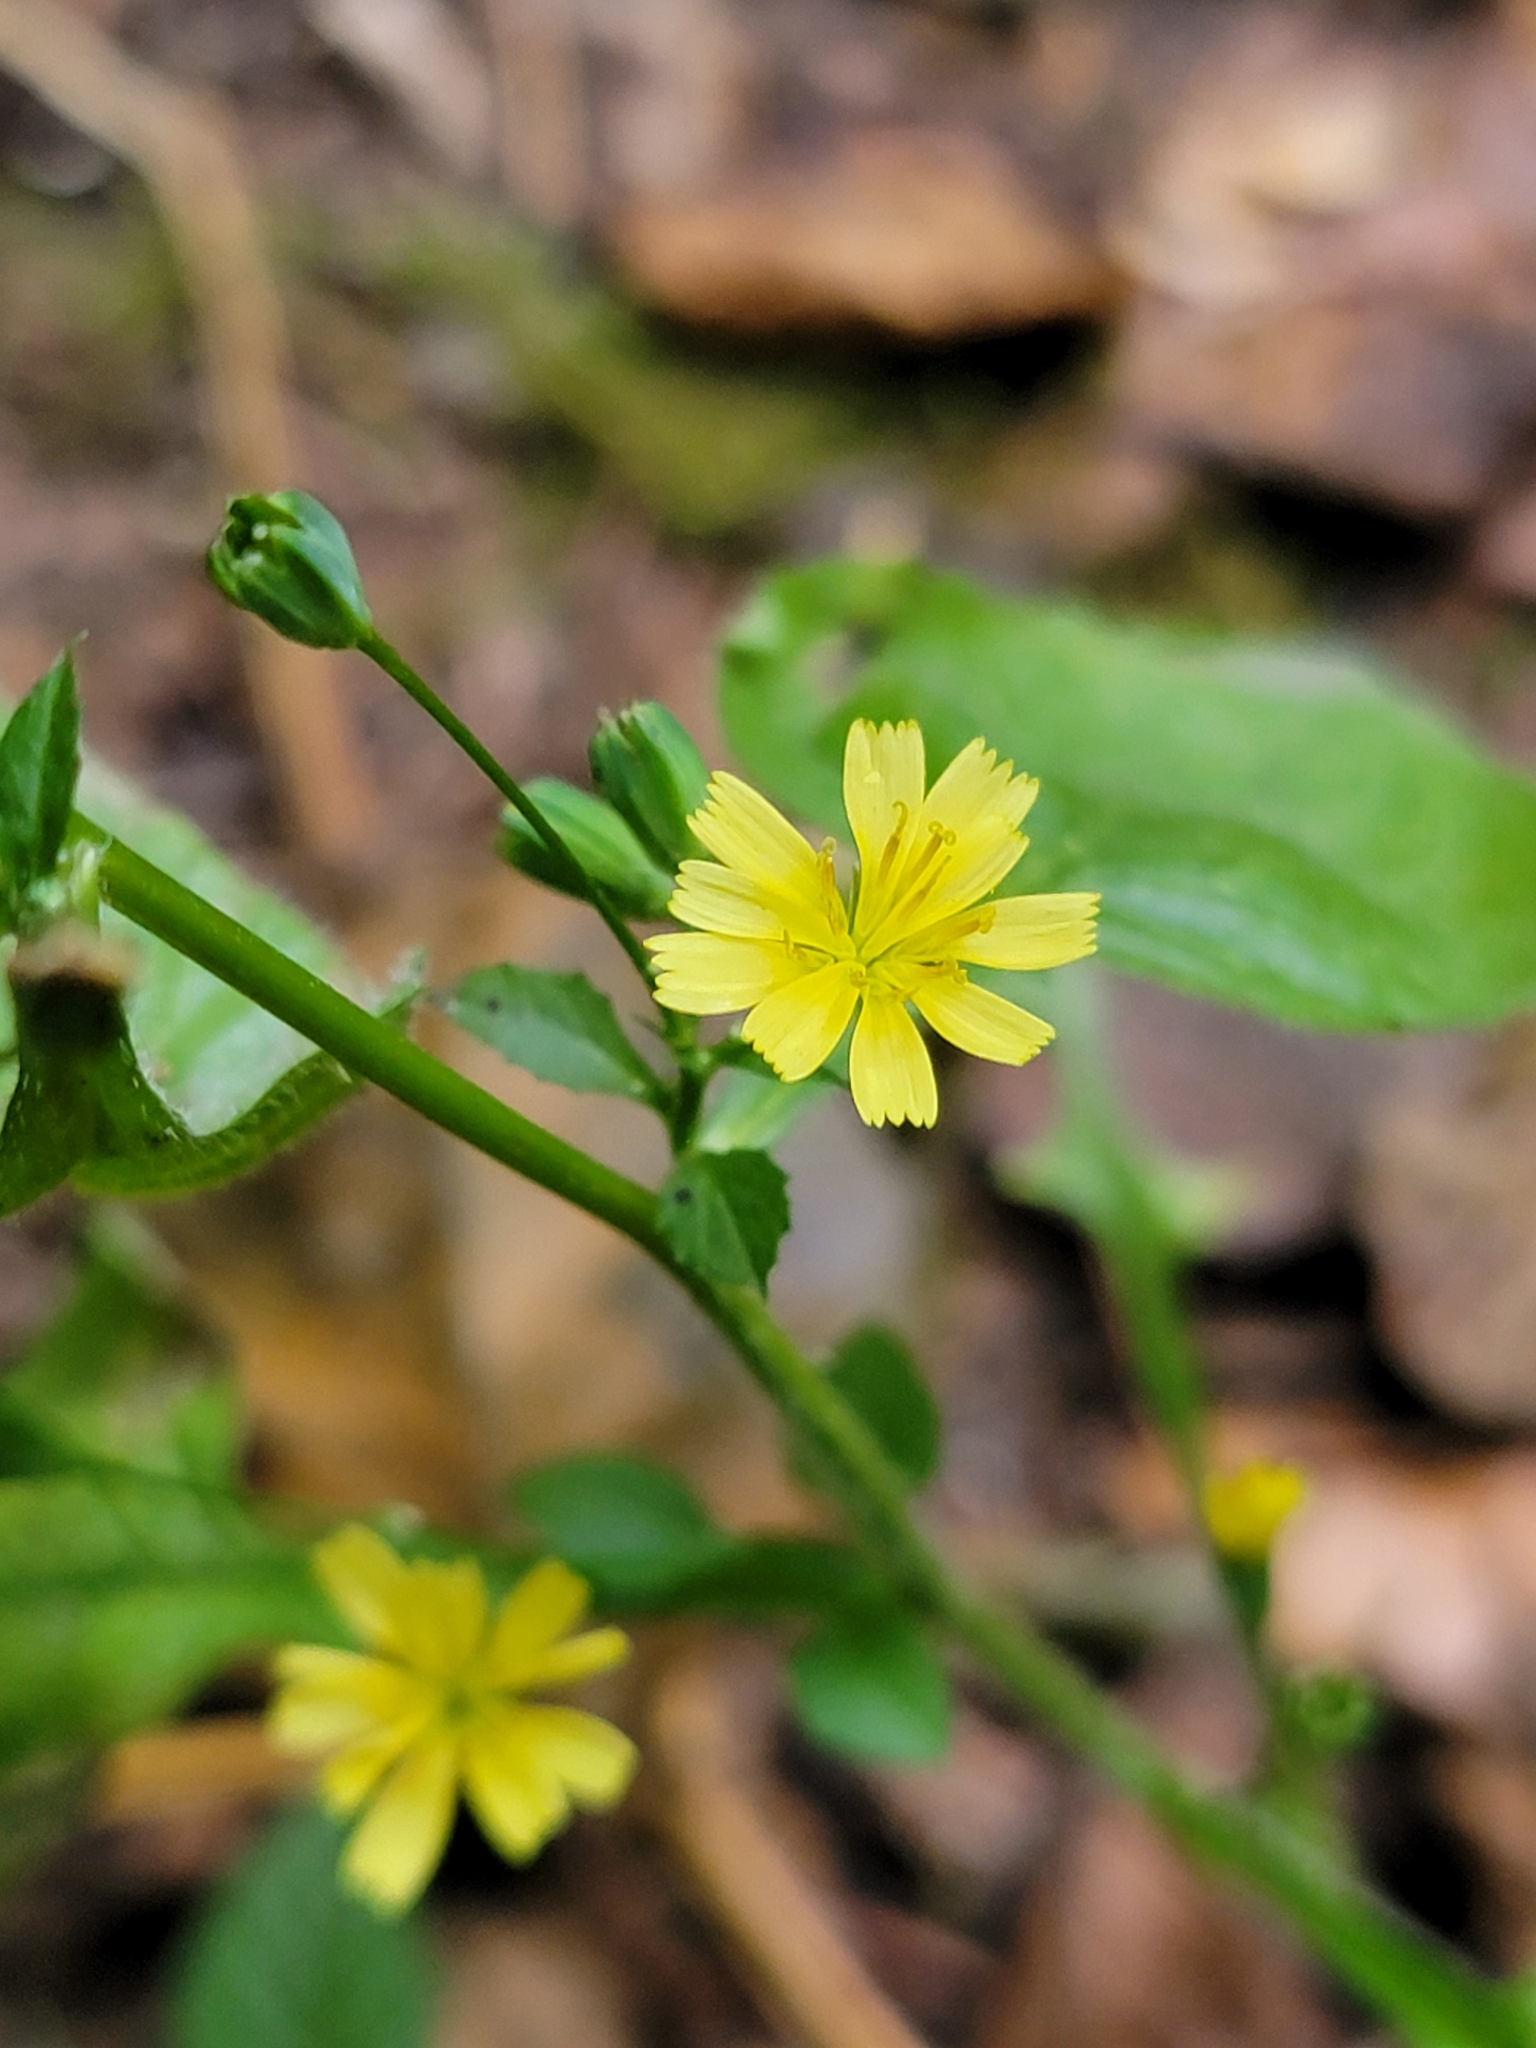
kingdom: Plantae
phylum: Tracheophyta
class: Magnoliopsida
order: Asterales
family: Asteraceae
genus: Lapsana
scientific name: Lapsana communis
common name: Nipplewort
